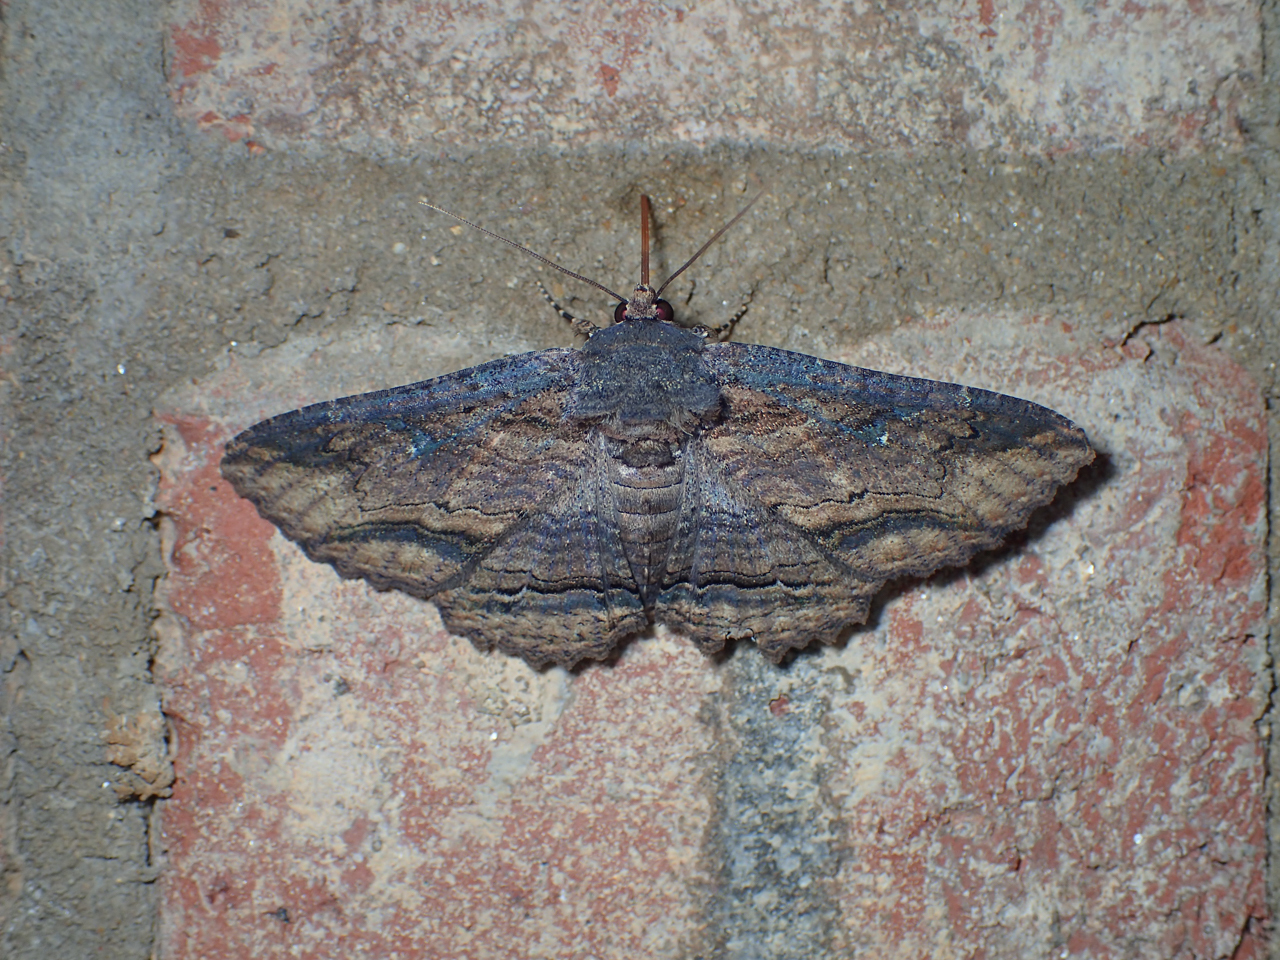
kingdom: Animalia
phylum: Arthropoda
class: Insecta
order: Lepidoptera
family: Erebidae
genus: Zale
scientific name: Zale lunata
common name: Lunate zale moth
